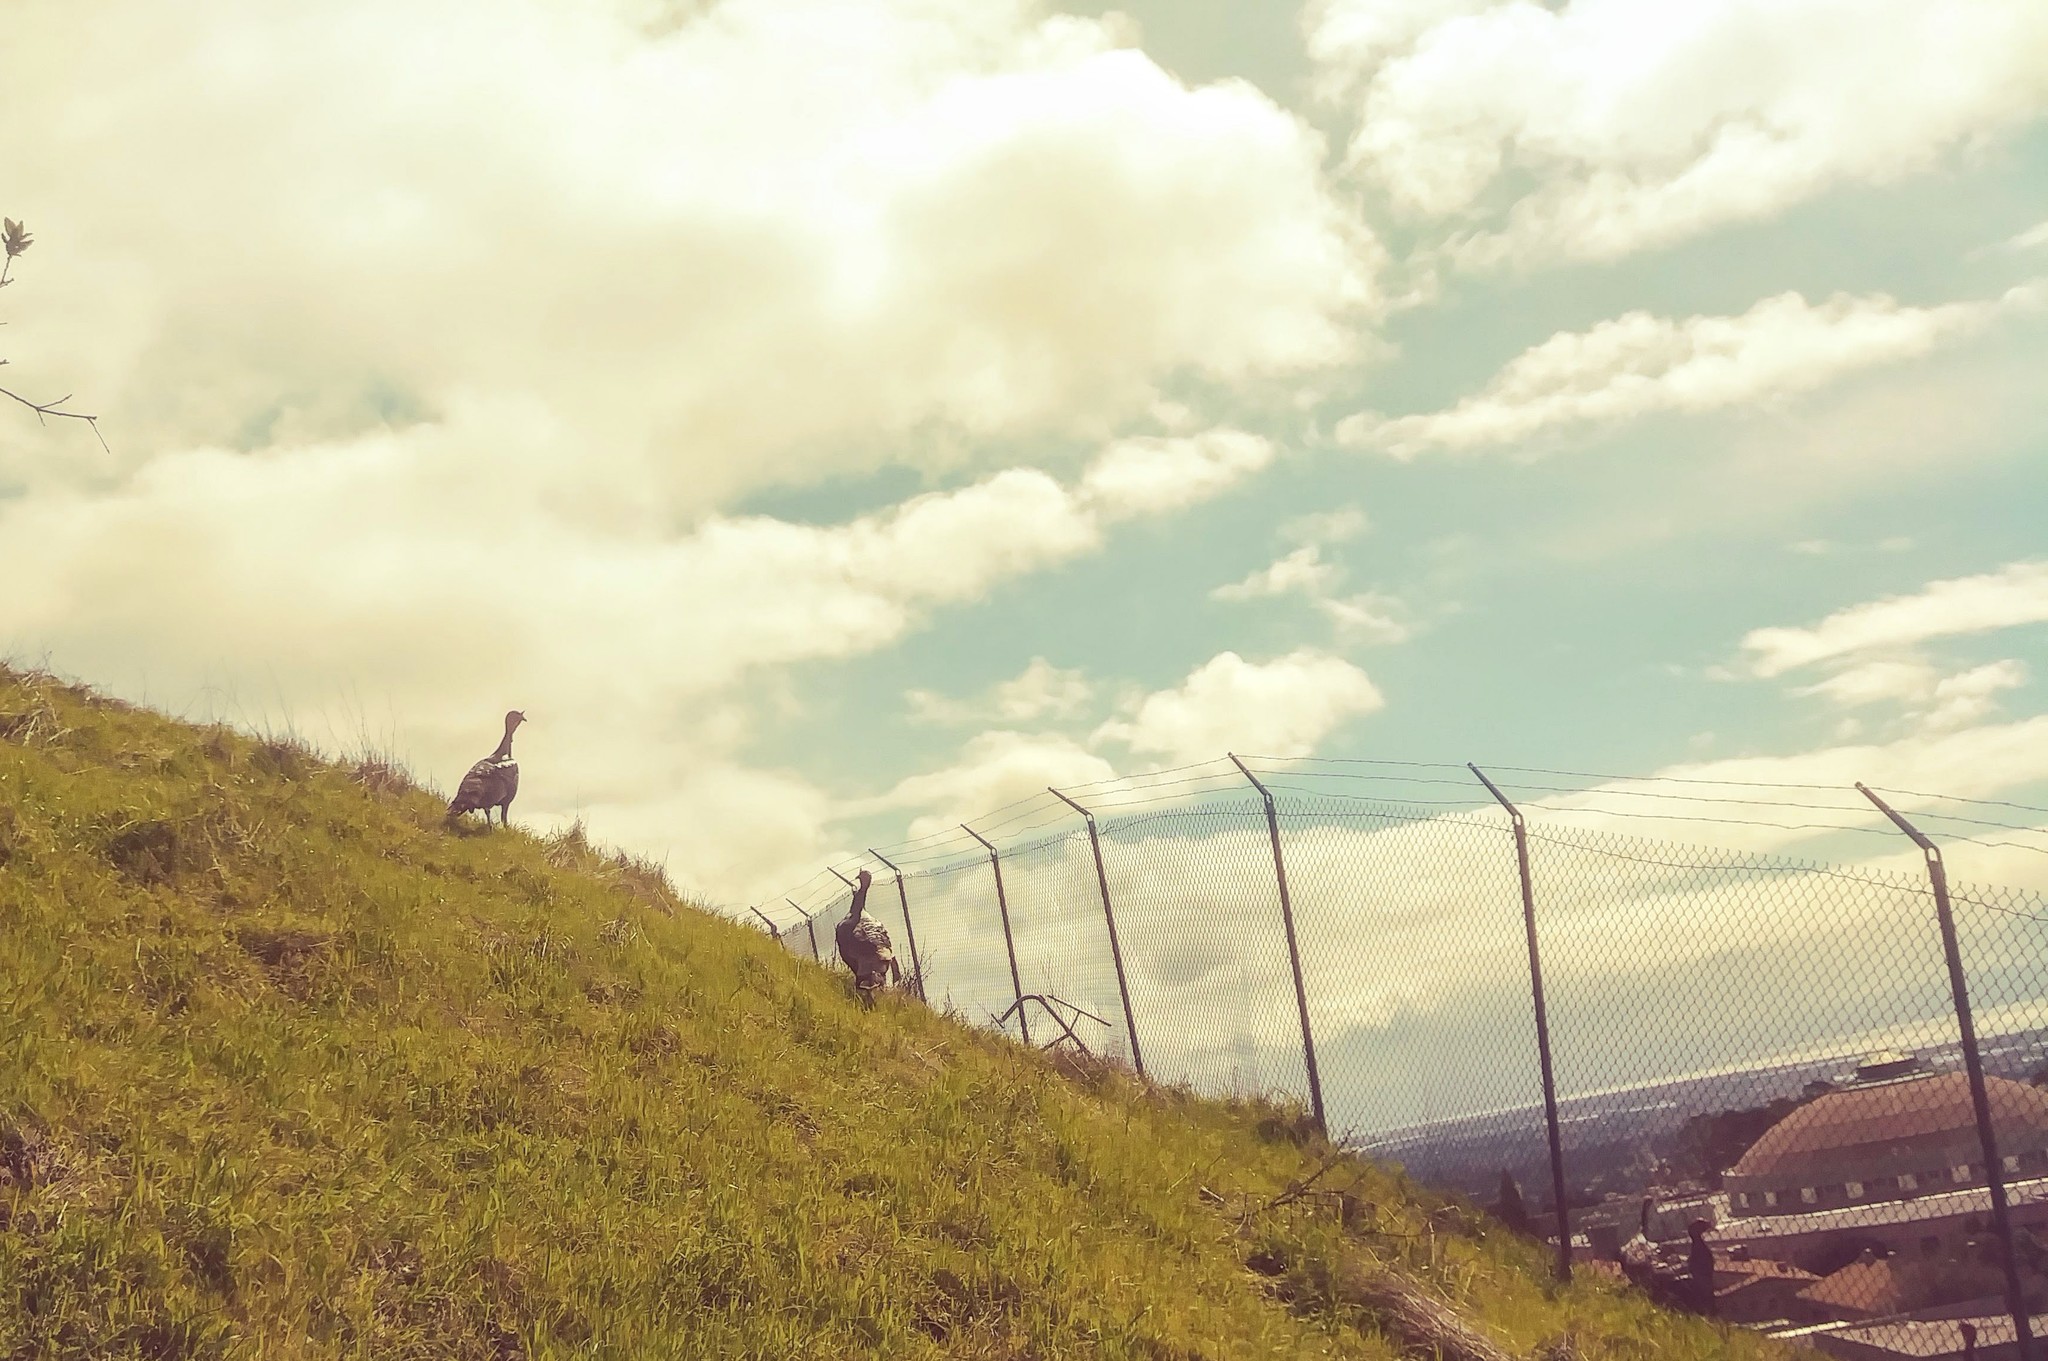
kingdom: Animalia
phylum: Chordata
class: Aves
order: Galliformes
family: Phasianidae
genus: Meleagris
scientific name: Meleagris gallopavo
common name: Wild turkey
